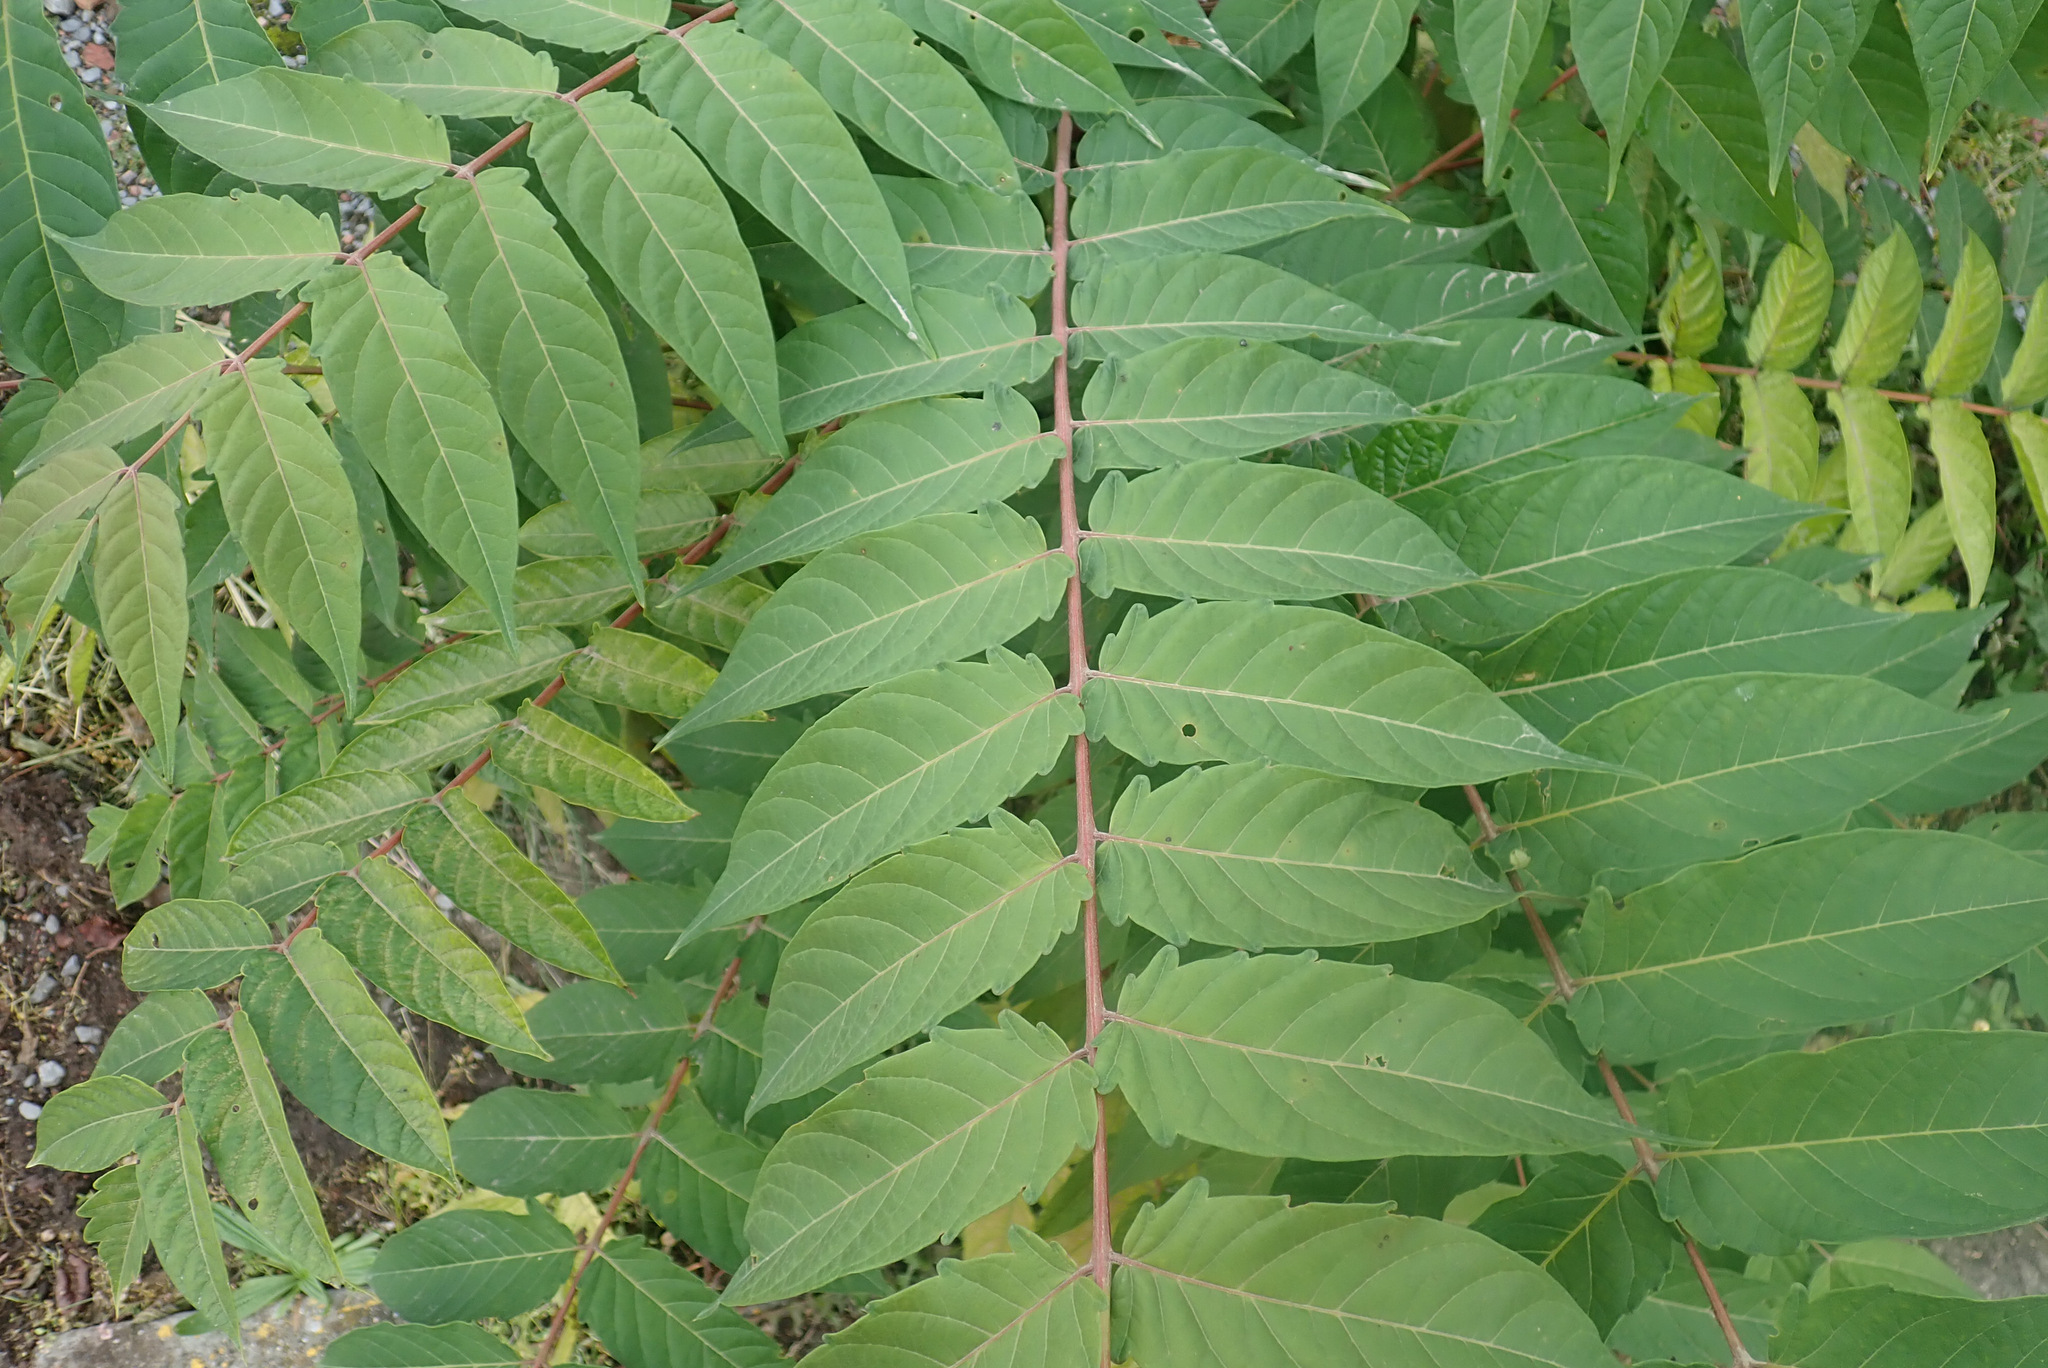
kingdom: Plantae
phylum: Tracheophyta
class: Magnoliopsida
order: Sapindales
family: Simaroubaceae
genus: Ailanthus
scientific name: Ailanthus altissima
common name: Tree-of-heaven
